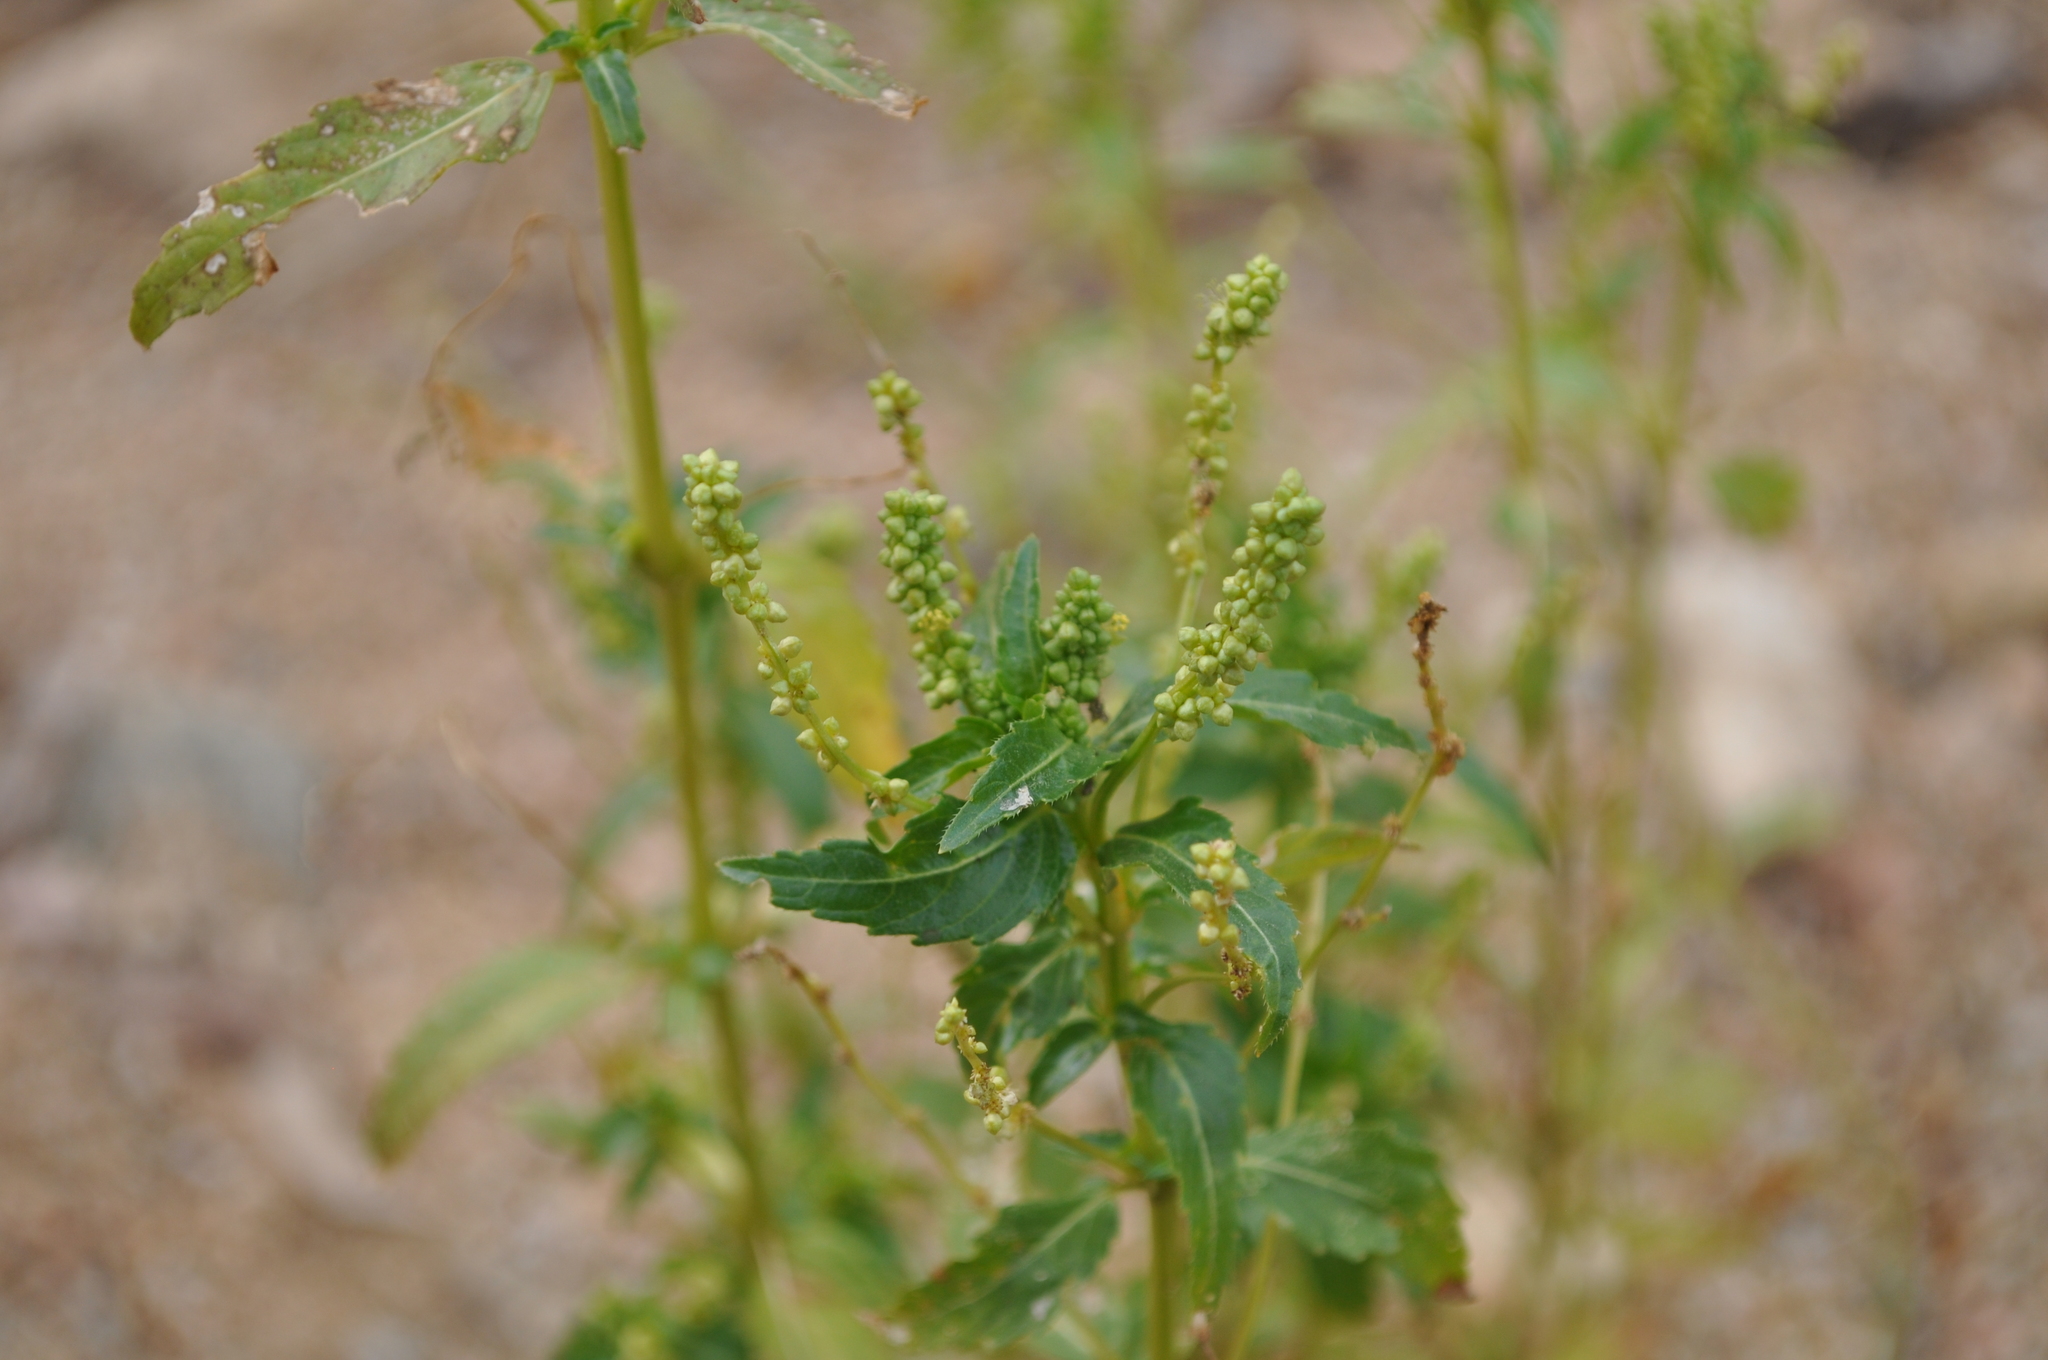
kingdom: Plantae
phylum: Tracheophyta
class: Magnoliopsida
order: Malpighiales
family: Euphorbiaceae
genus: Mercurialis
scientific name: Mercurialis annua
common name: Annual mercury
